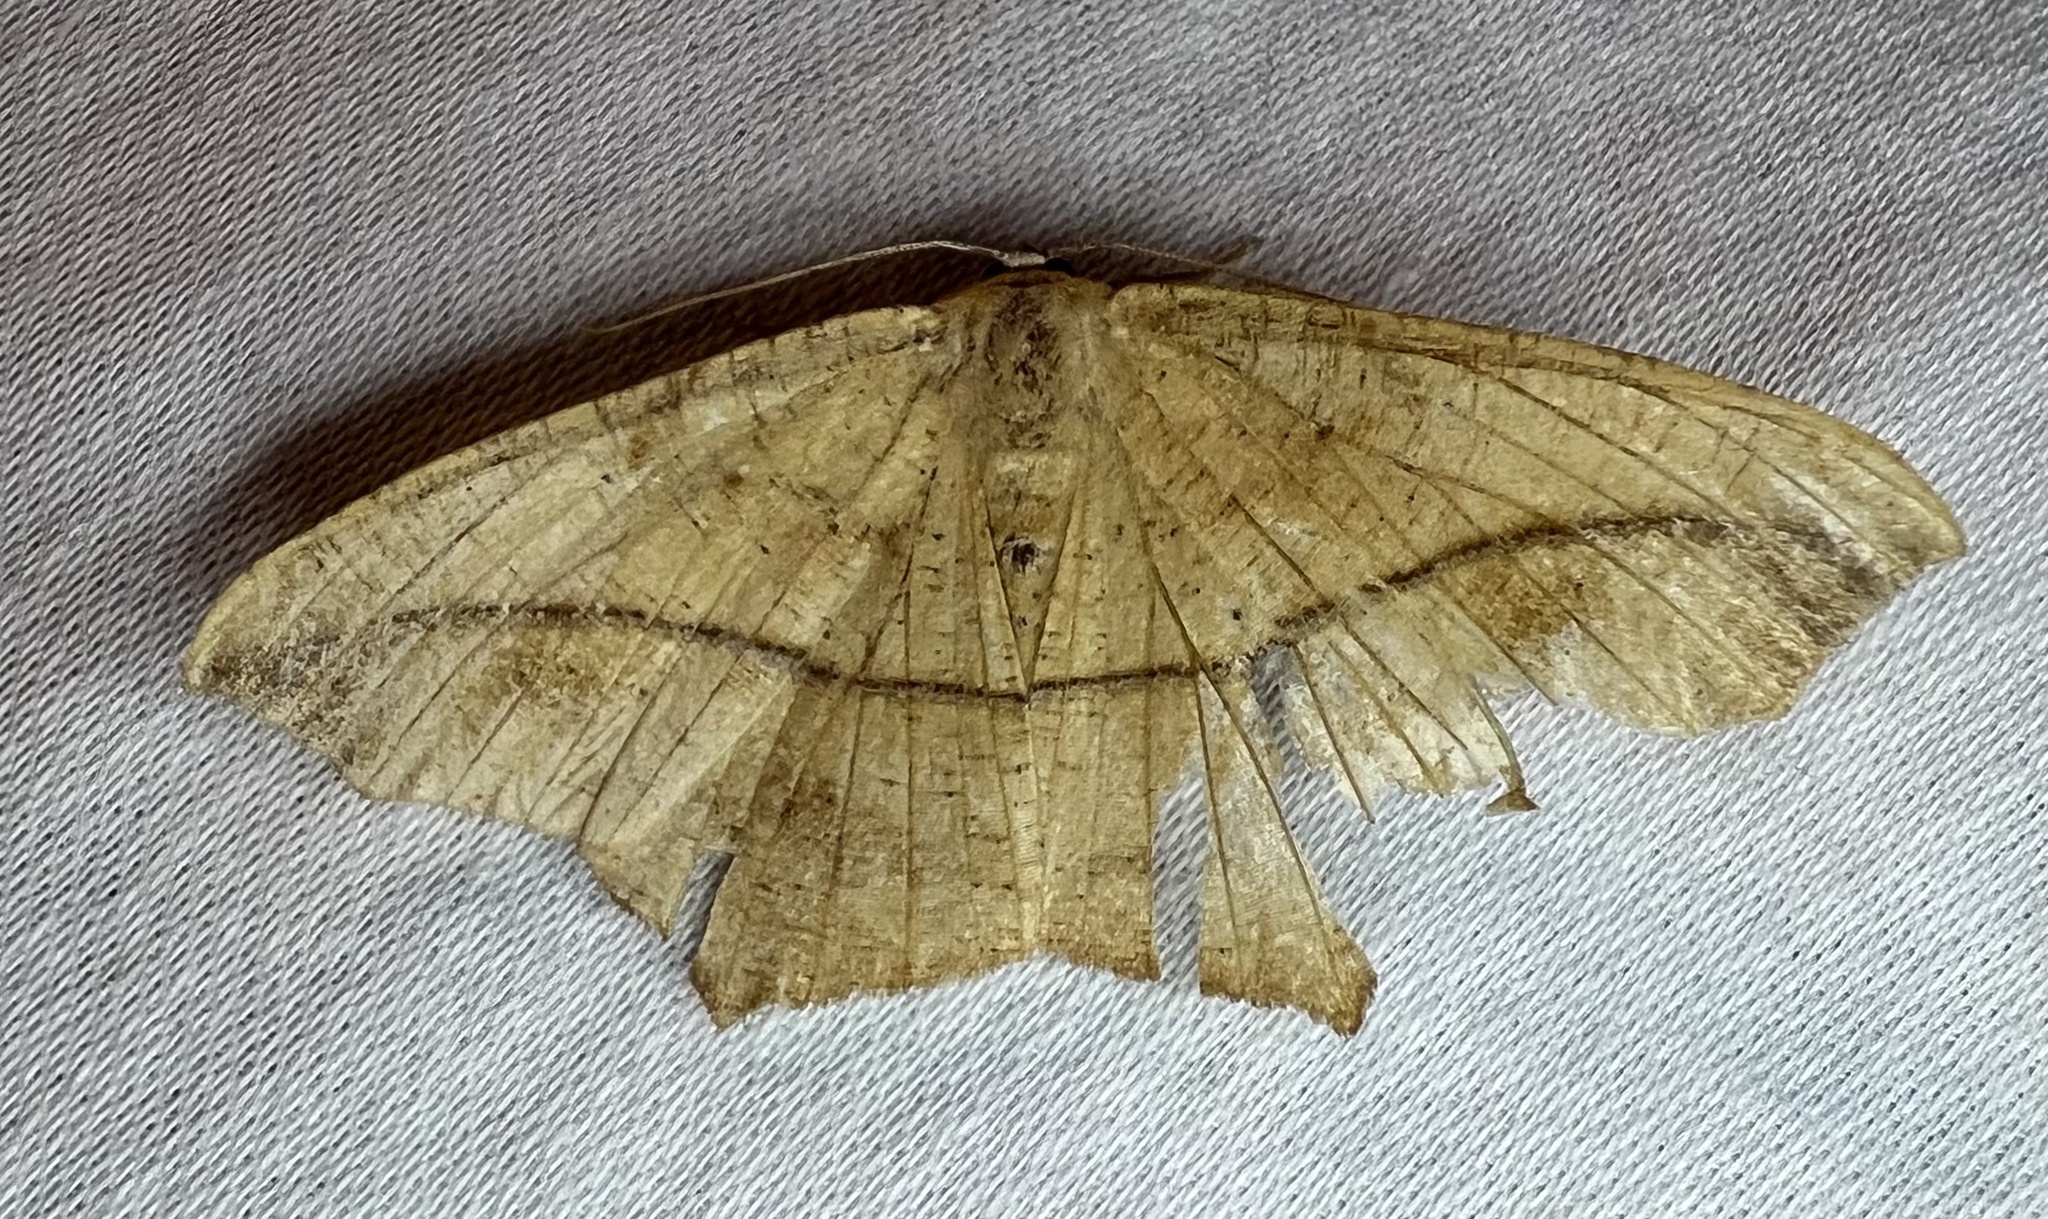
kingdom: Animalia
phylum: Arthropoda
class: Insecta
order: Lepidoptera
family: Geometridae
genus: Prochoerodes
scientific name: Prochoerodes lineola
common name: Large maple spanworm
